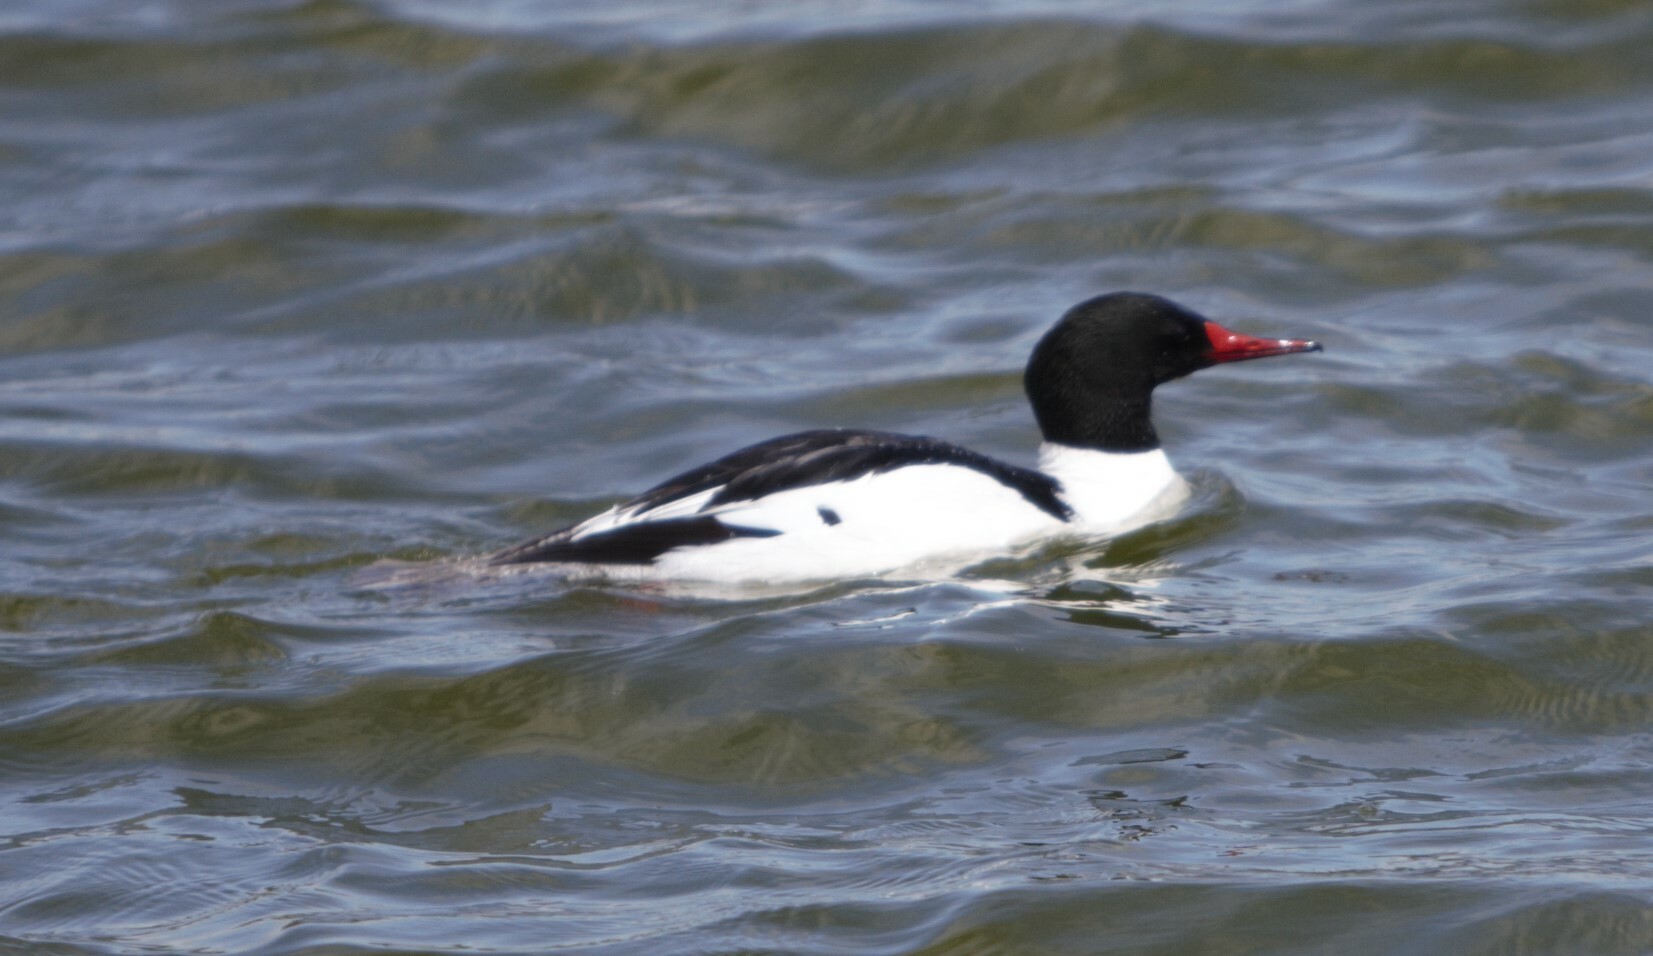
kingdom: Animalia
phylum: Chordata
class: Aves
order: Anseriformes
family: Anatidae
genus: Mergus
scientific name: Mergus merganser
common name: Common merganser
